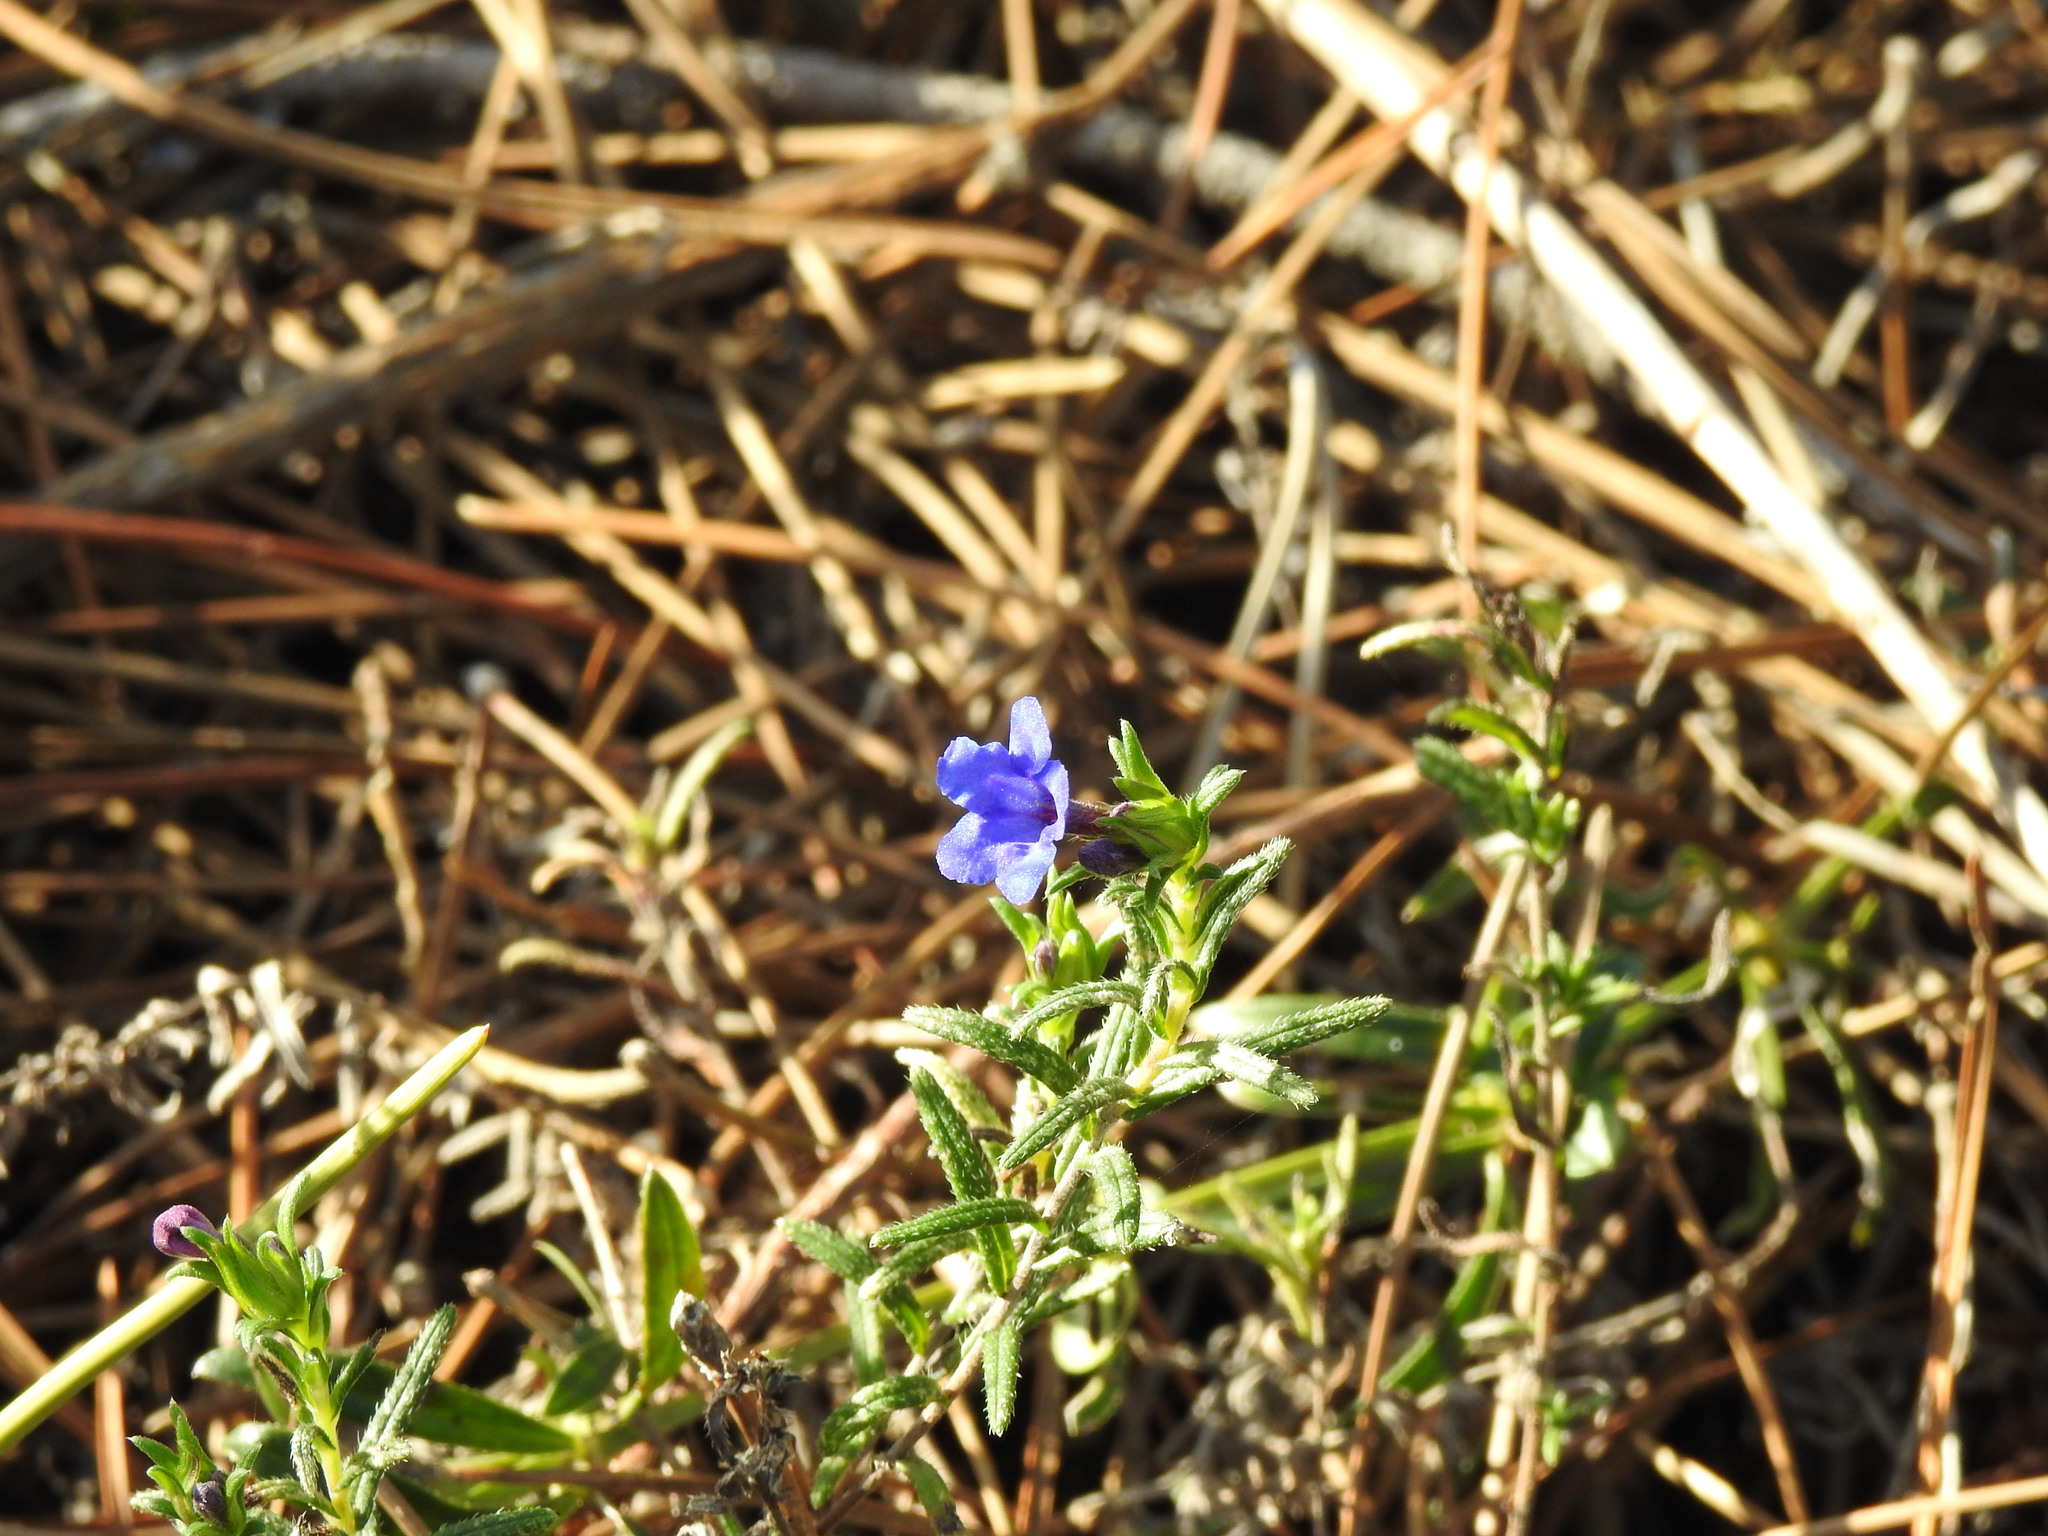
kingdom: Plantae
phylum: Tracheophyta
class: Magnoliopsida
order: Boraginales
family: Boraginaceae
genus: Glandora
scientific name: Glandora prostrata
